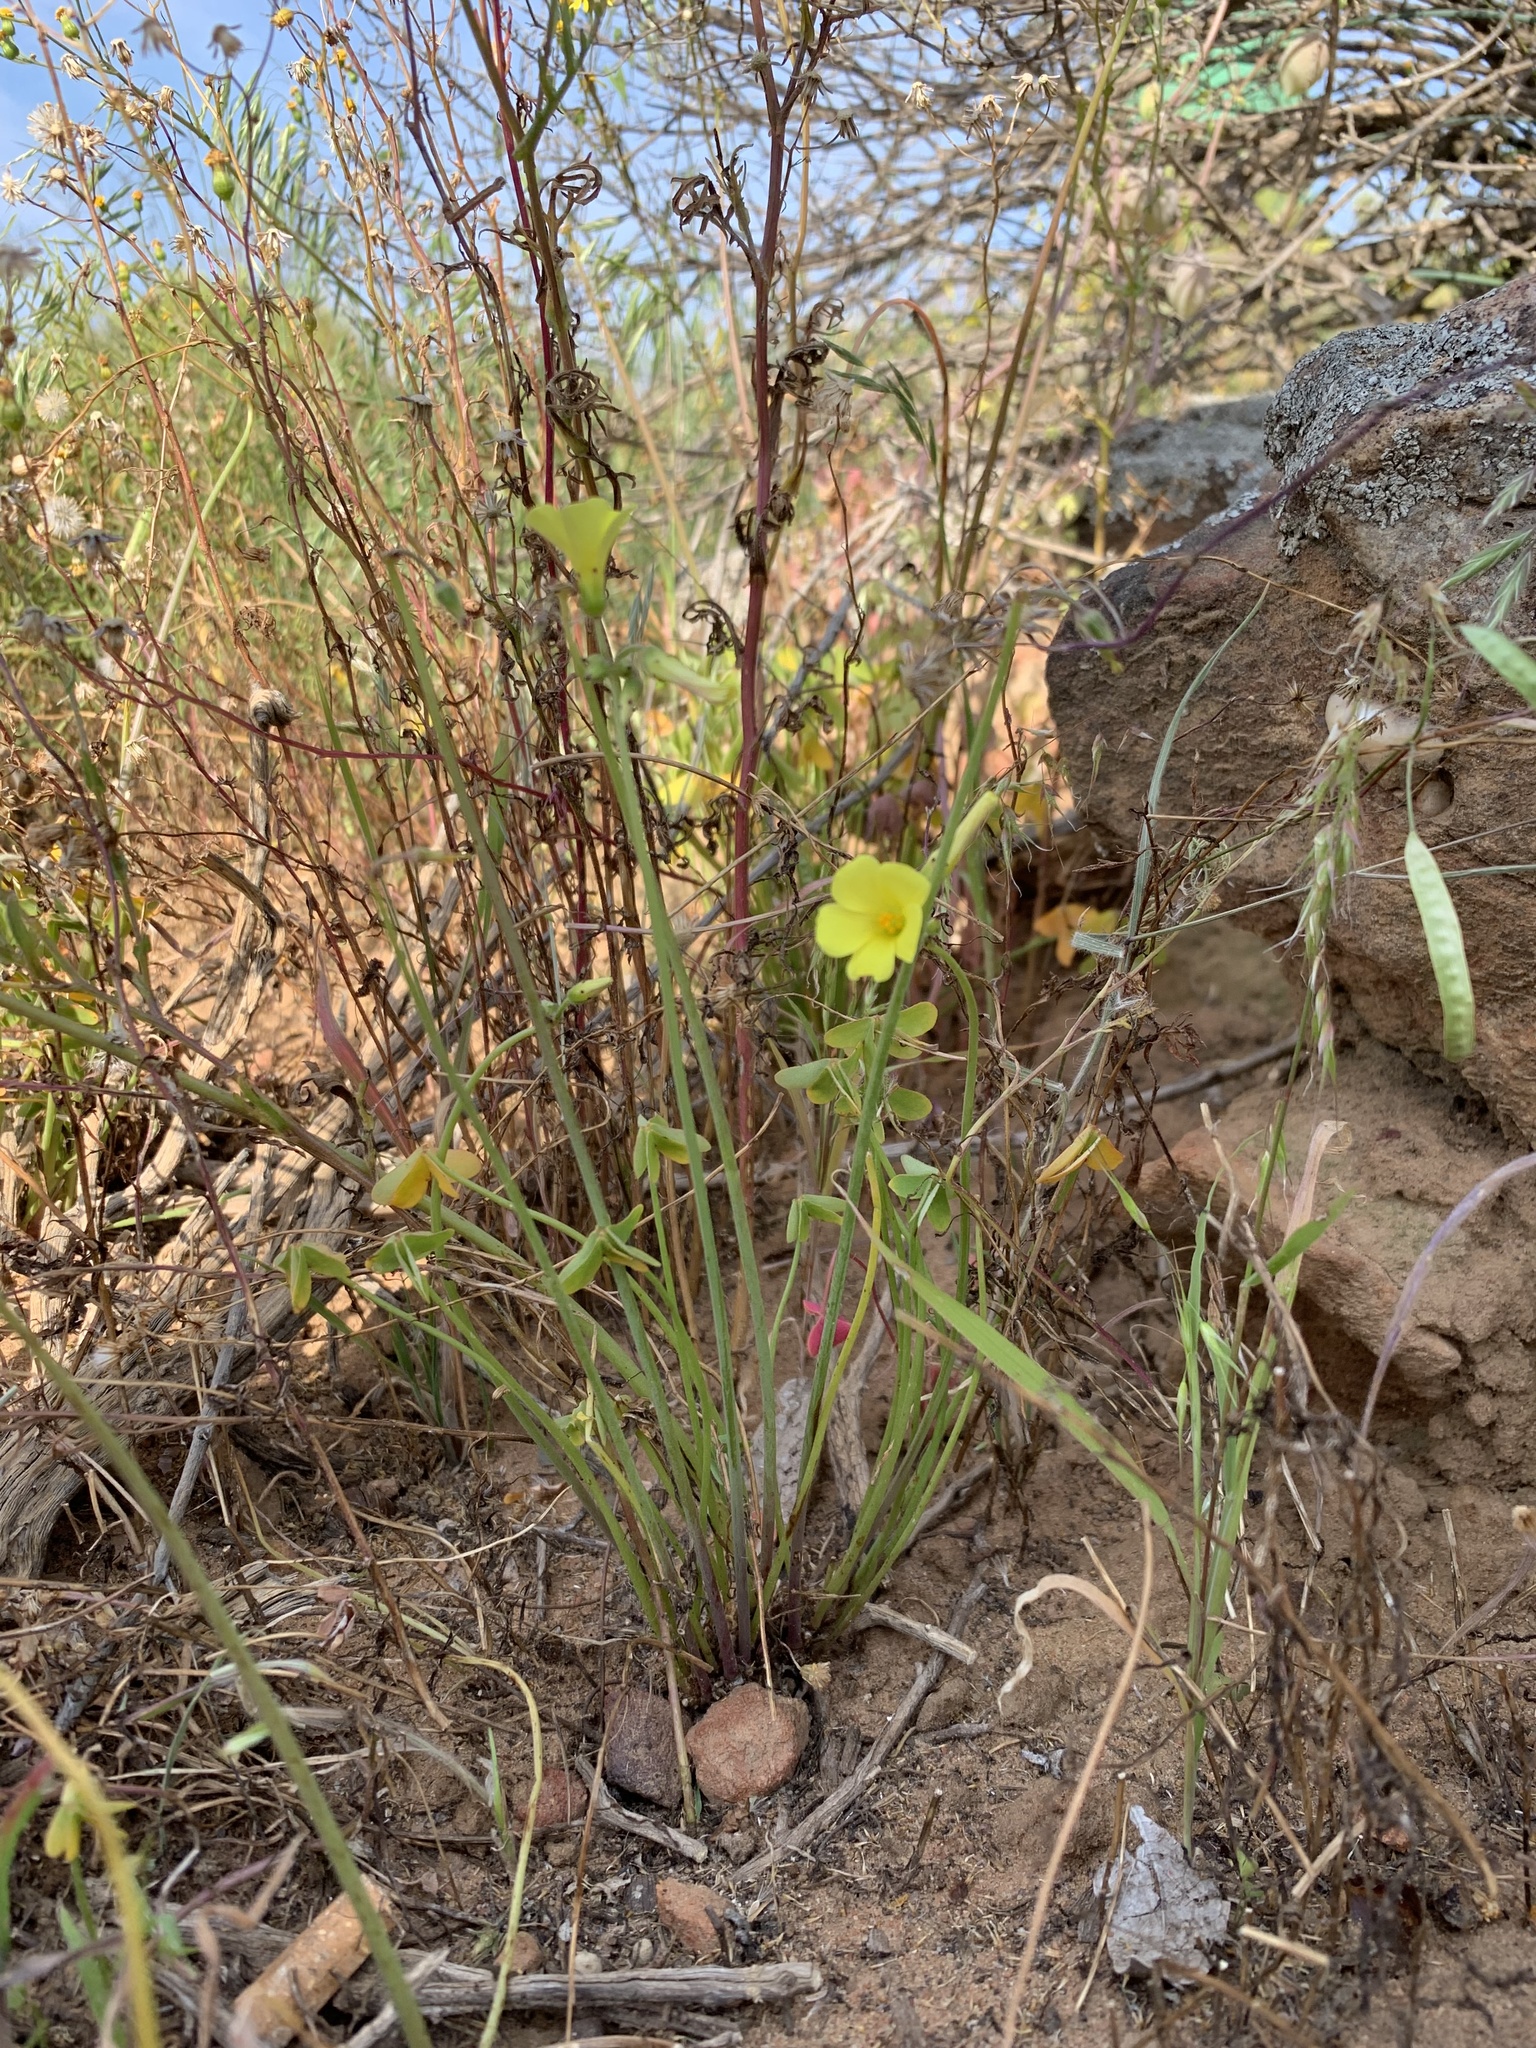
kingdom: Plantae
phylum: Tracheophyta
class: Magnoliopsida
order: Oxalidales
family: Oxalidaceae
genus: Oxalis
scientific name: Oxalis pes-caprae
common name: Bermuda-buttercup
